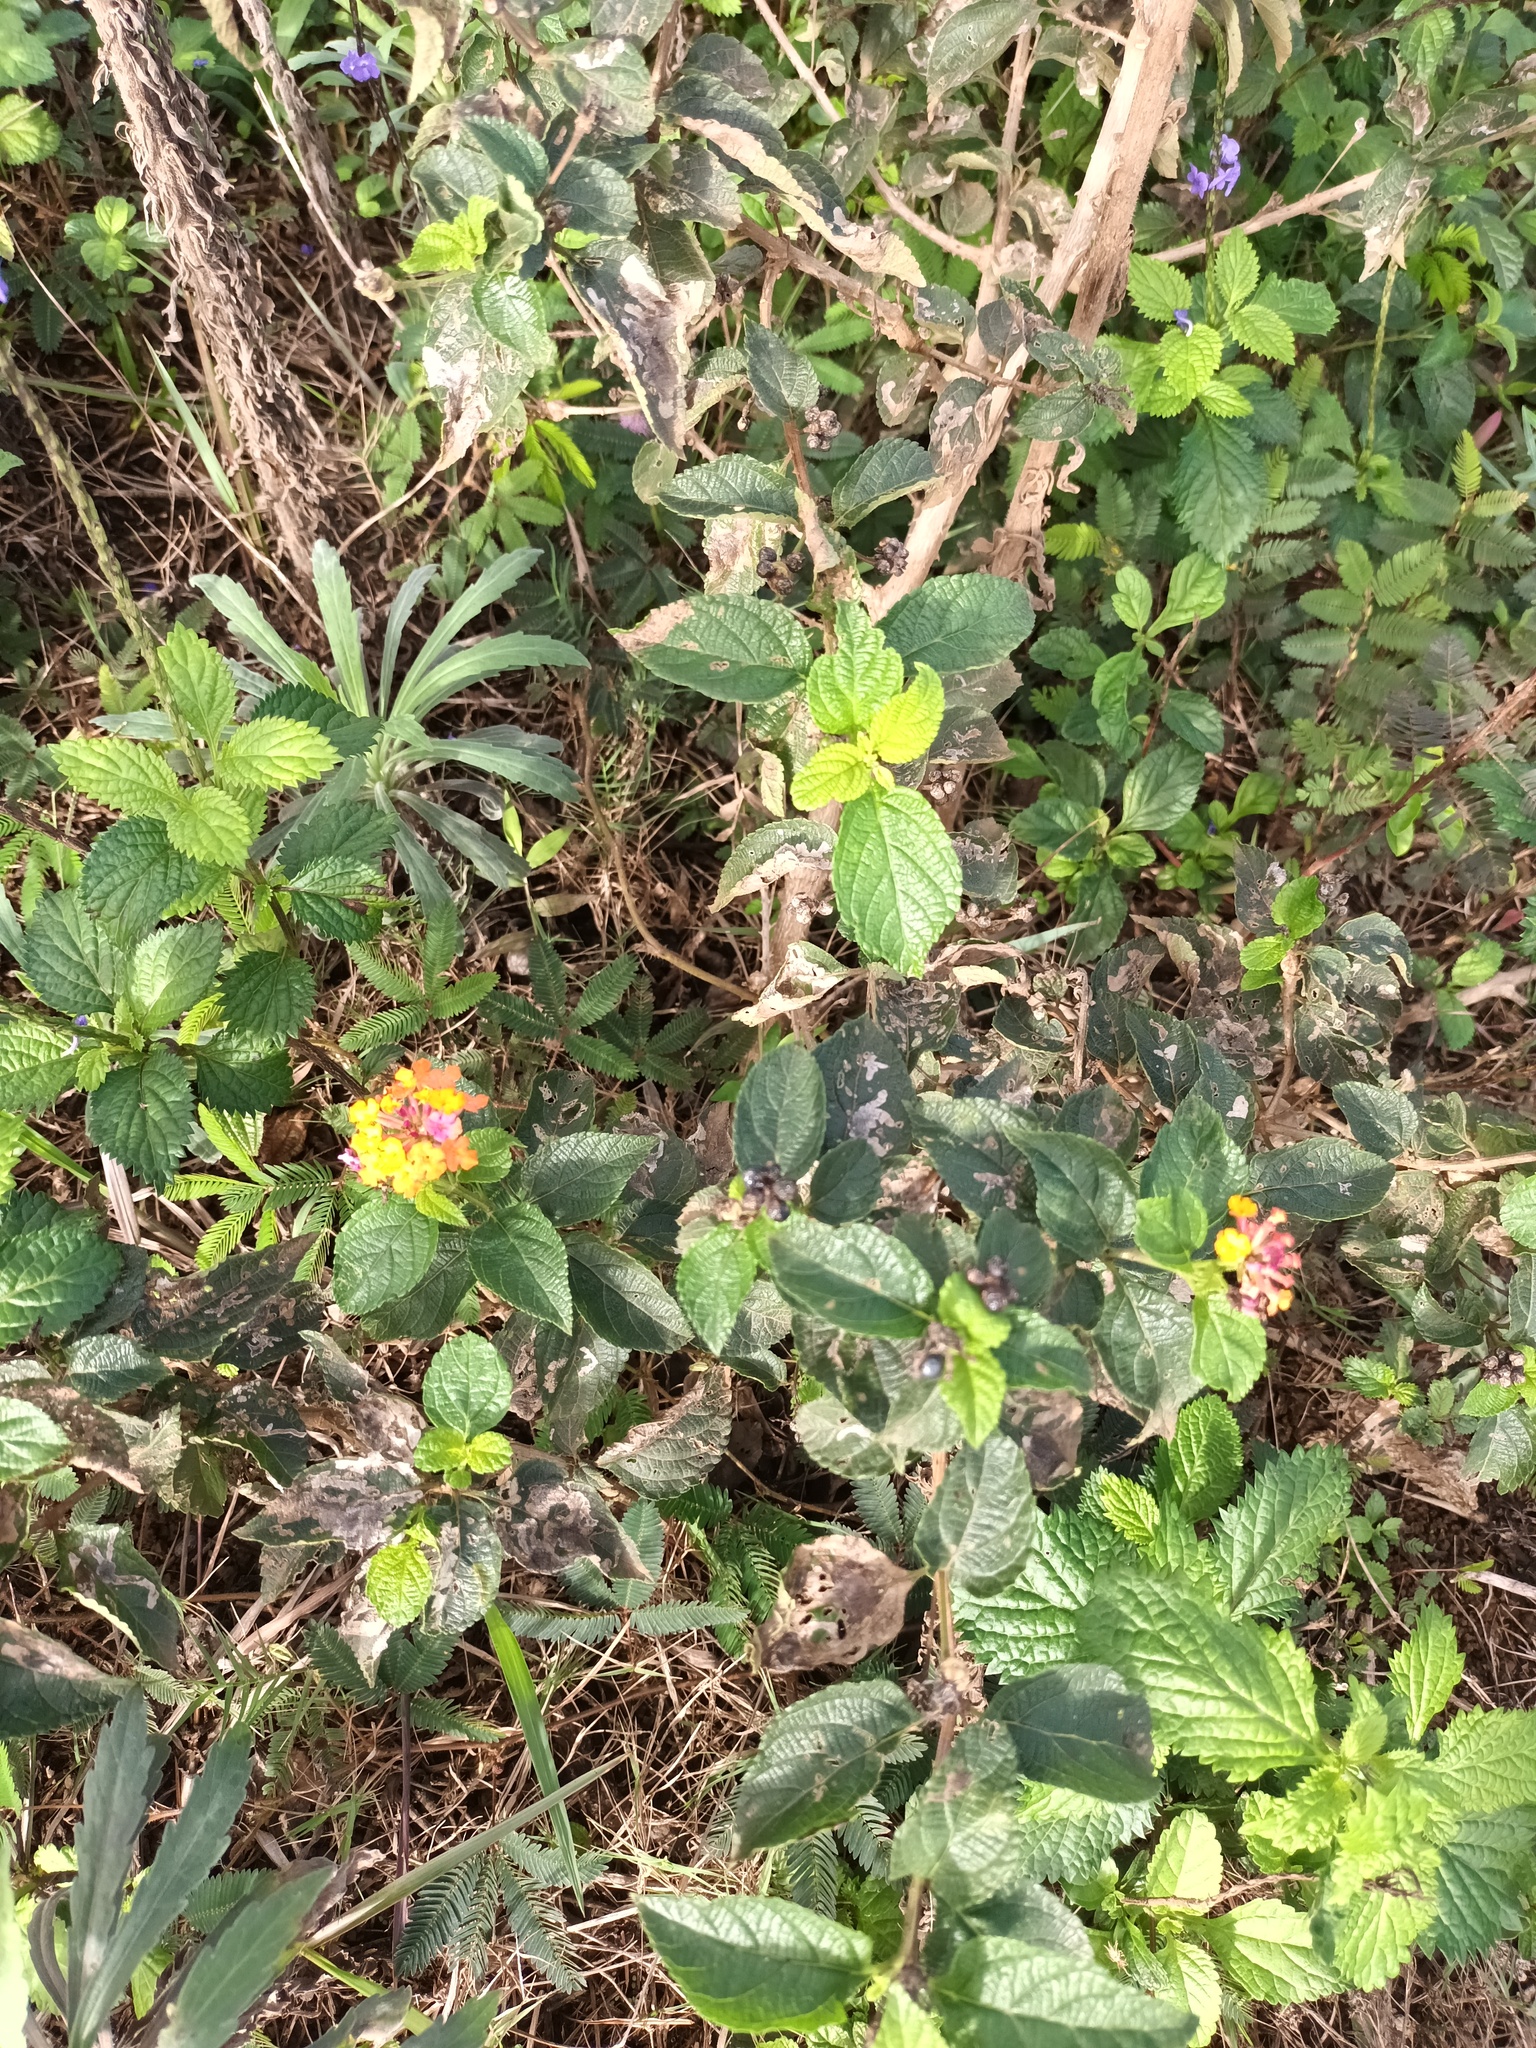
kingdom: Plantae
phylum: Tracheophyta
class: Magnoliopsida
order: Lamiales
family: Verbenaceae
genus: Lantana
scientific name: Lantana camara
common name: Lantana
